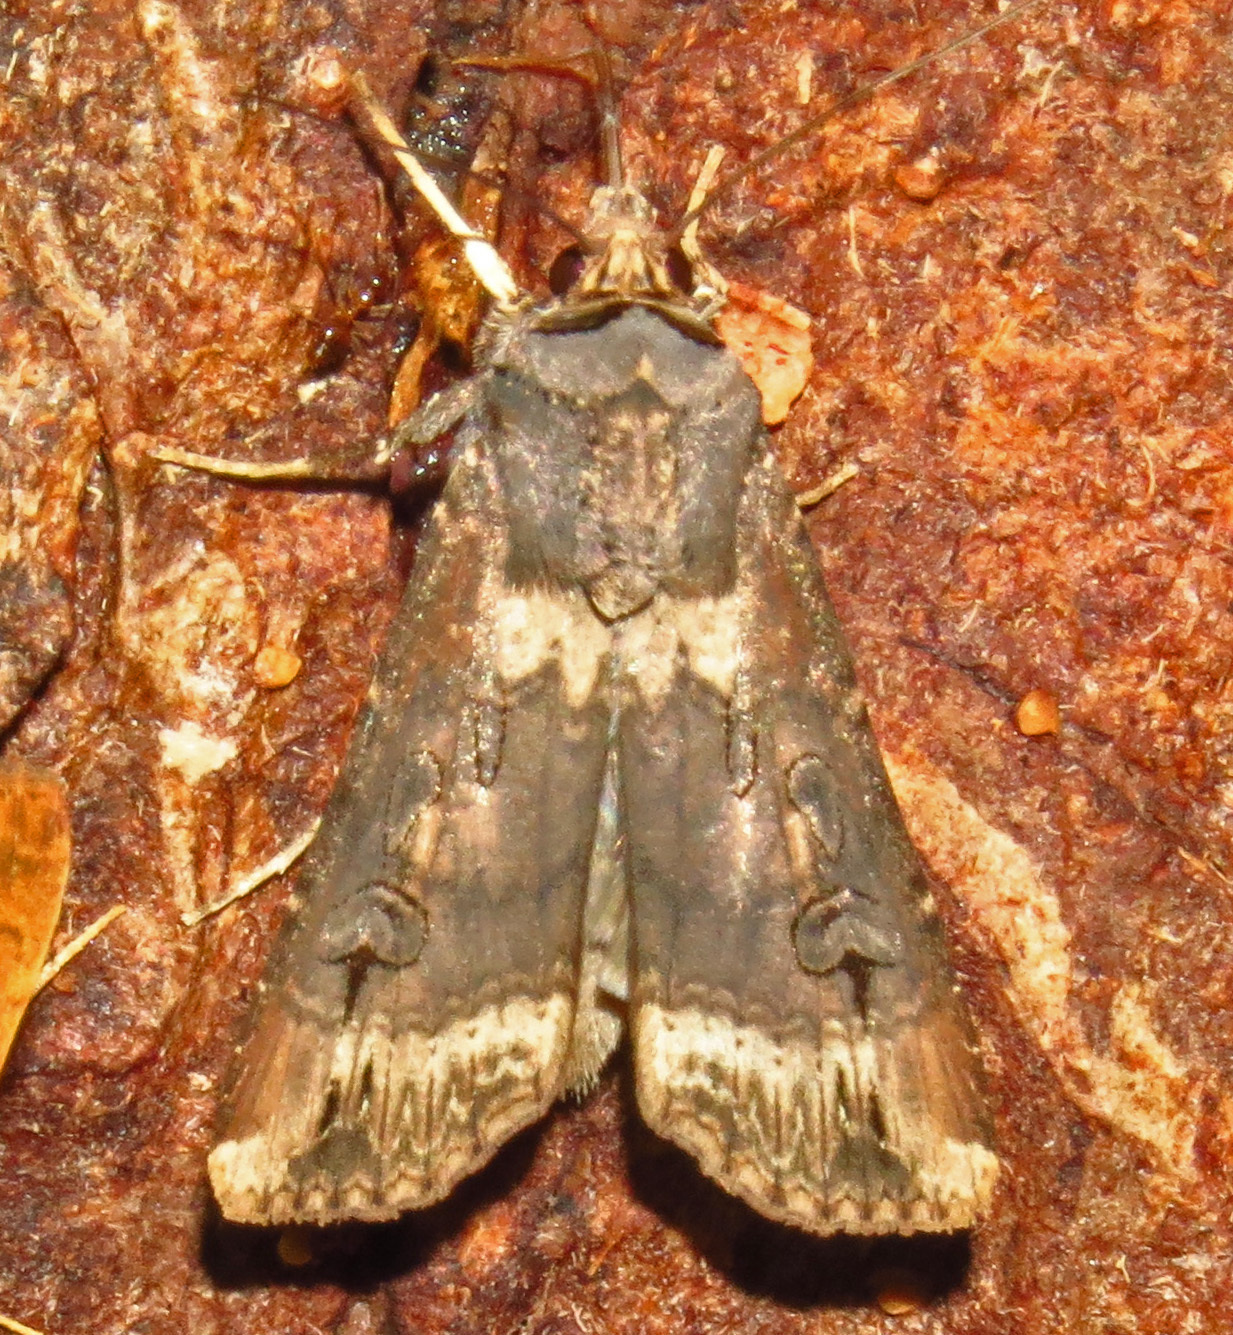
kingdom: Animalia
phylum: Arthropoda
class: Insecta
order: Lepidoptera
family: Noctuidae
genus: Agrotis
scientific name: Agrotis ipsilon
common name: Dark sword-grass
